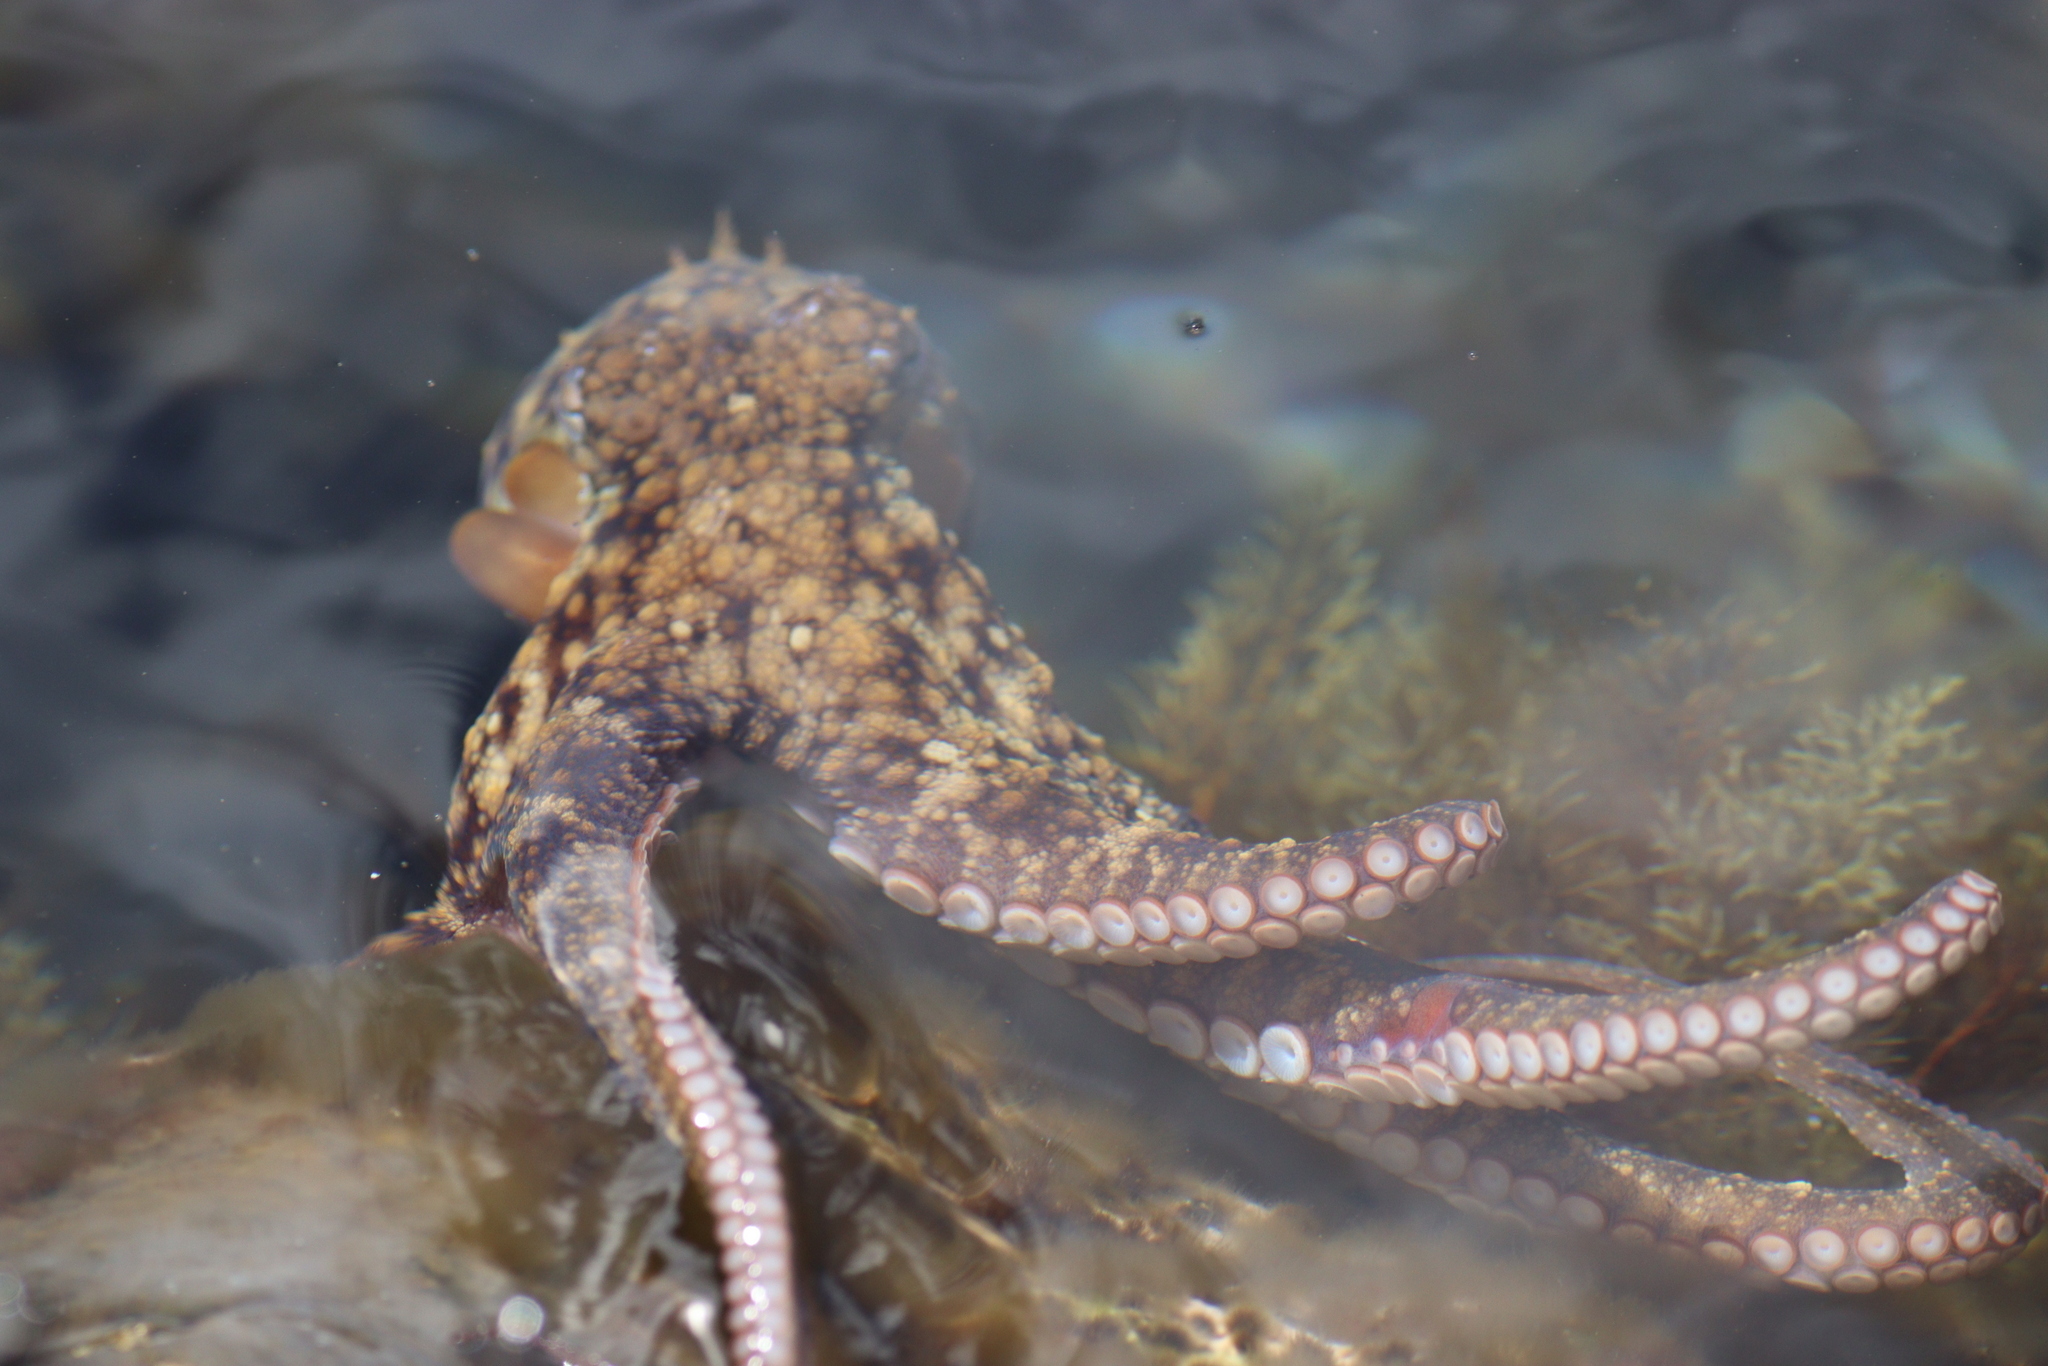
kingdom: Animalia
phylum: Mollusca
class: Cephalopoda
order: Octopoda
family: Octopodidae
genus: Octopus
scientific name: Octopus vulgaris
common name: Common octopus
